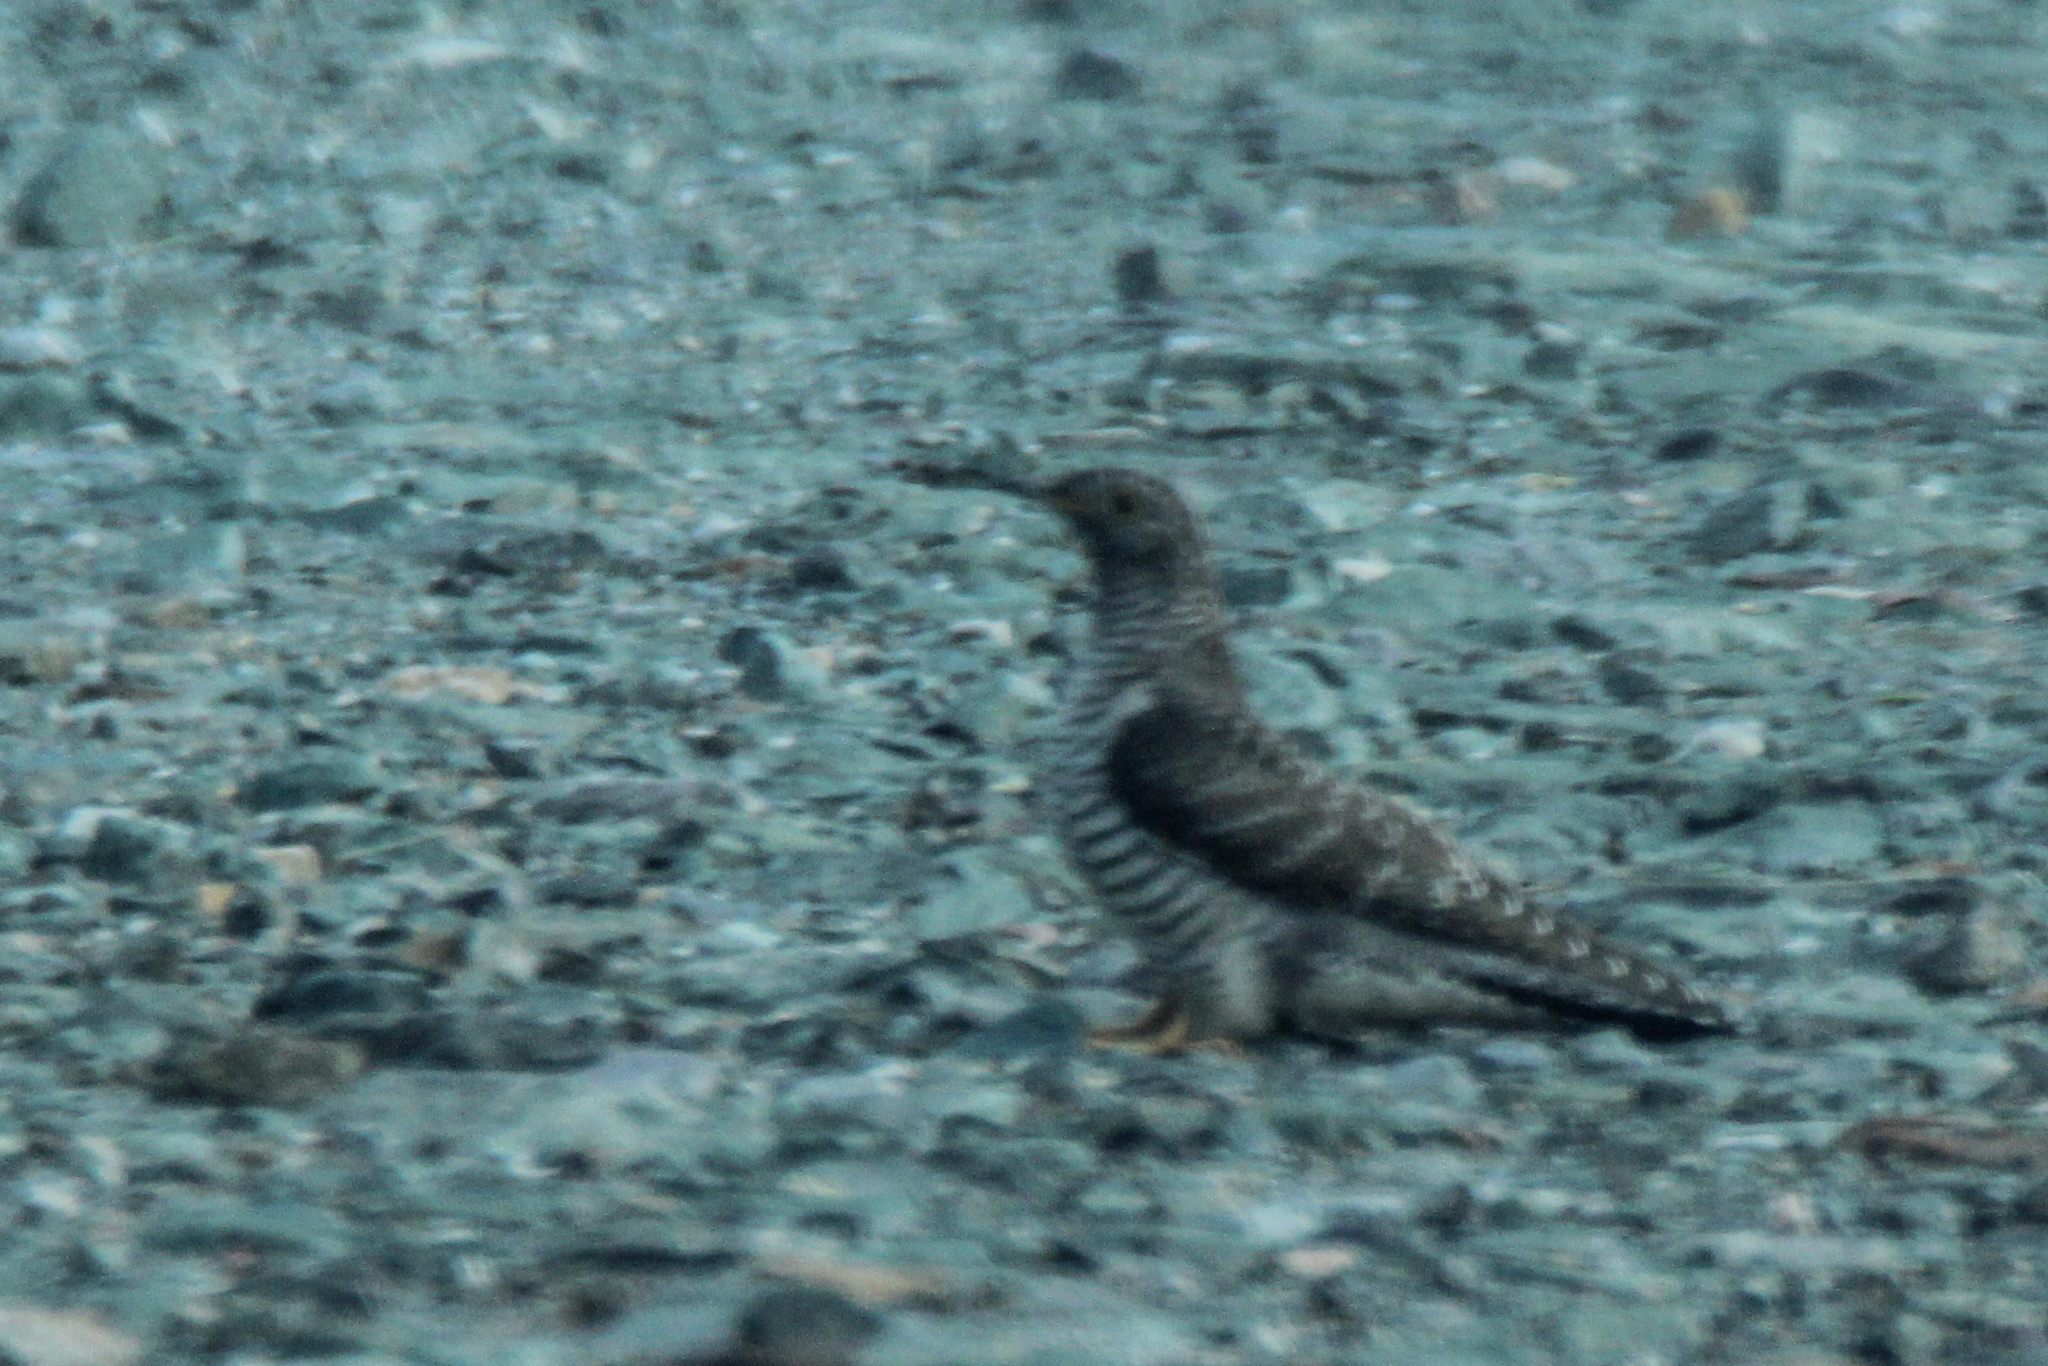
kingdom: Animalia
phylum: Chordata
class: Aves
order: Cuculiformes
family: Cuculidae
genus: Cuculus
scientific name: Cuculus canorus
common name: Common cuckoo
